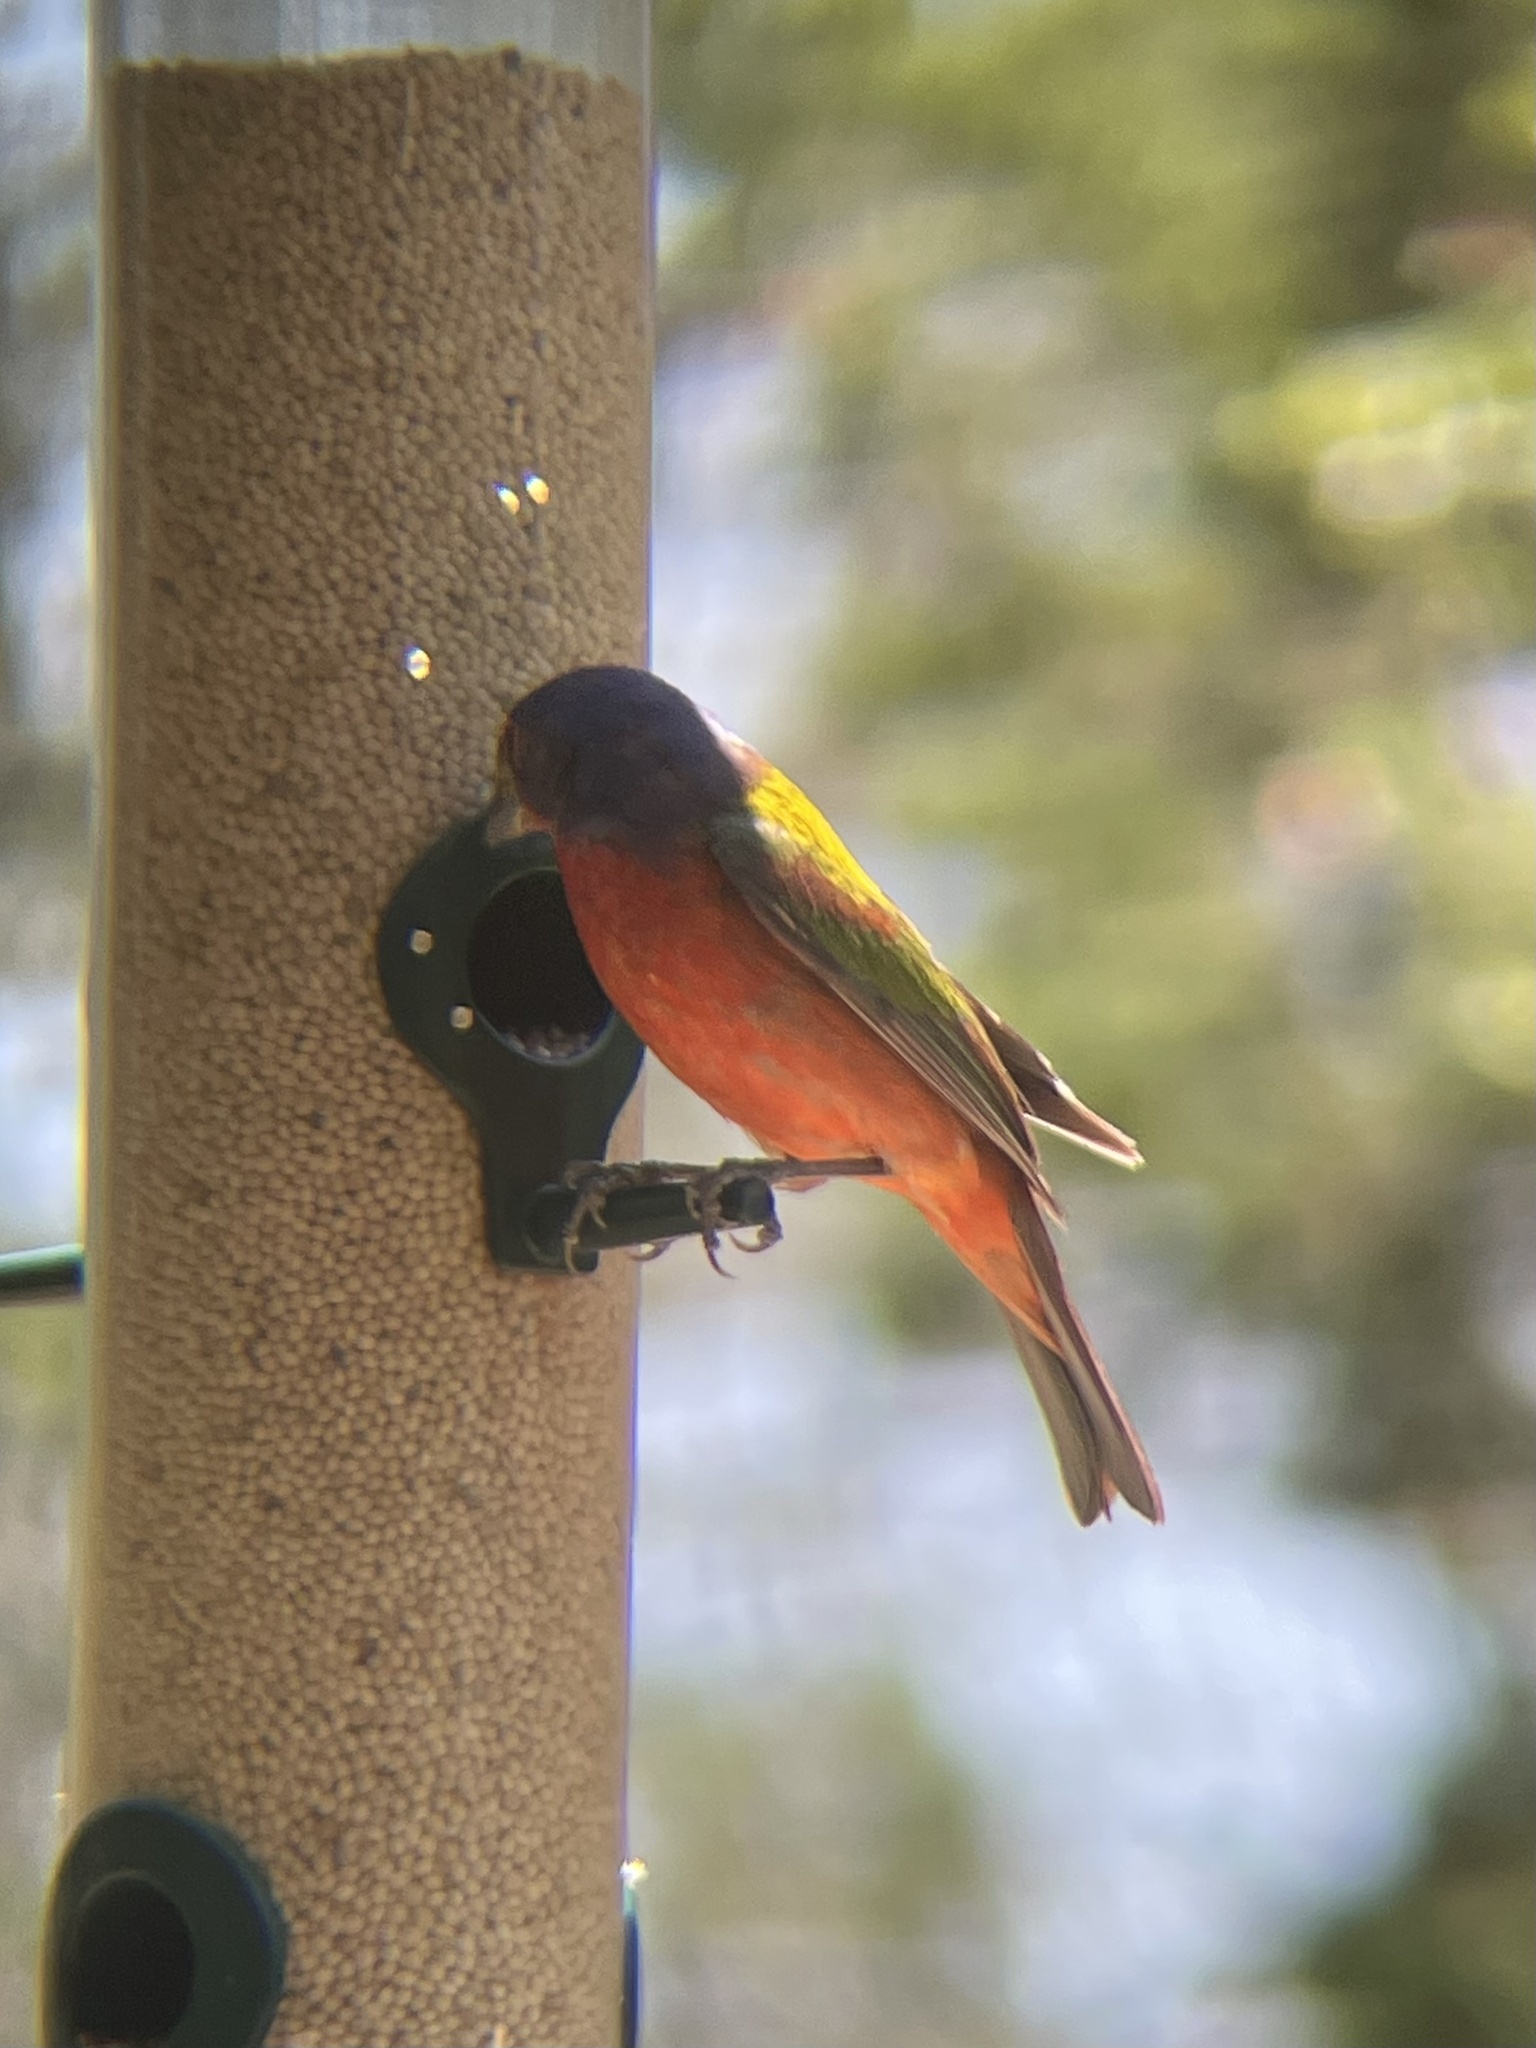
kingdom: Animalia
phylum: Chordata
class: Aves
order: Passeriformes
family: Cardinalidae
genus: Passerina
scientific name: Passerina ciris
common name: Painted bunting
